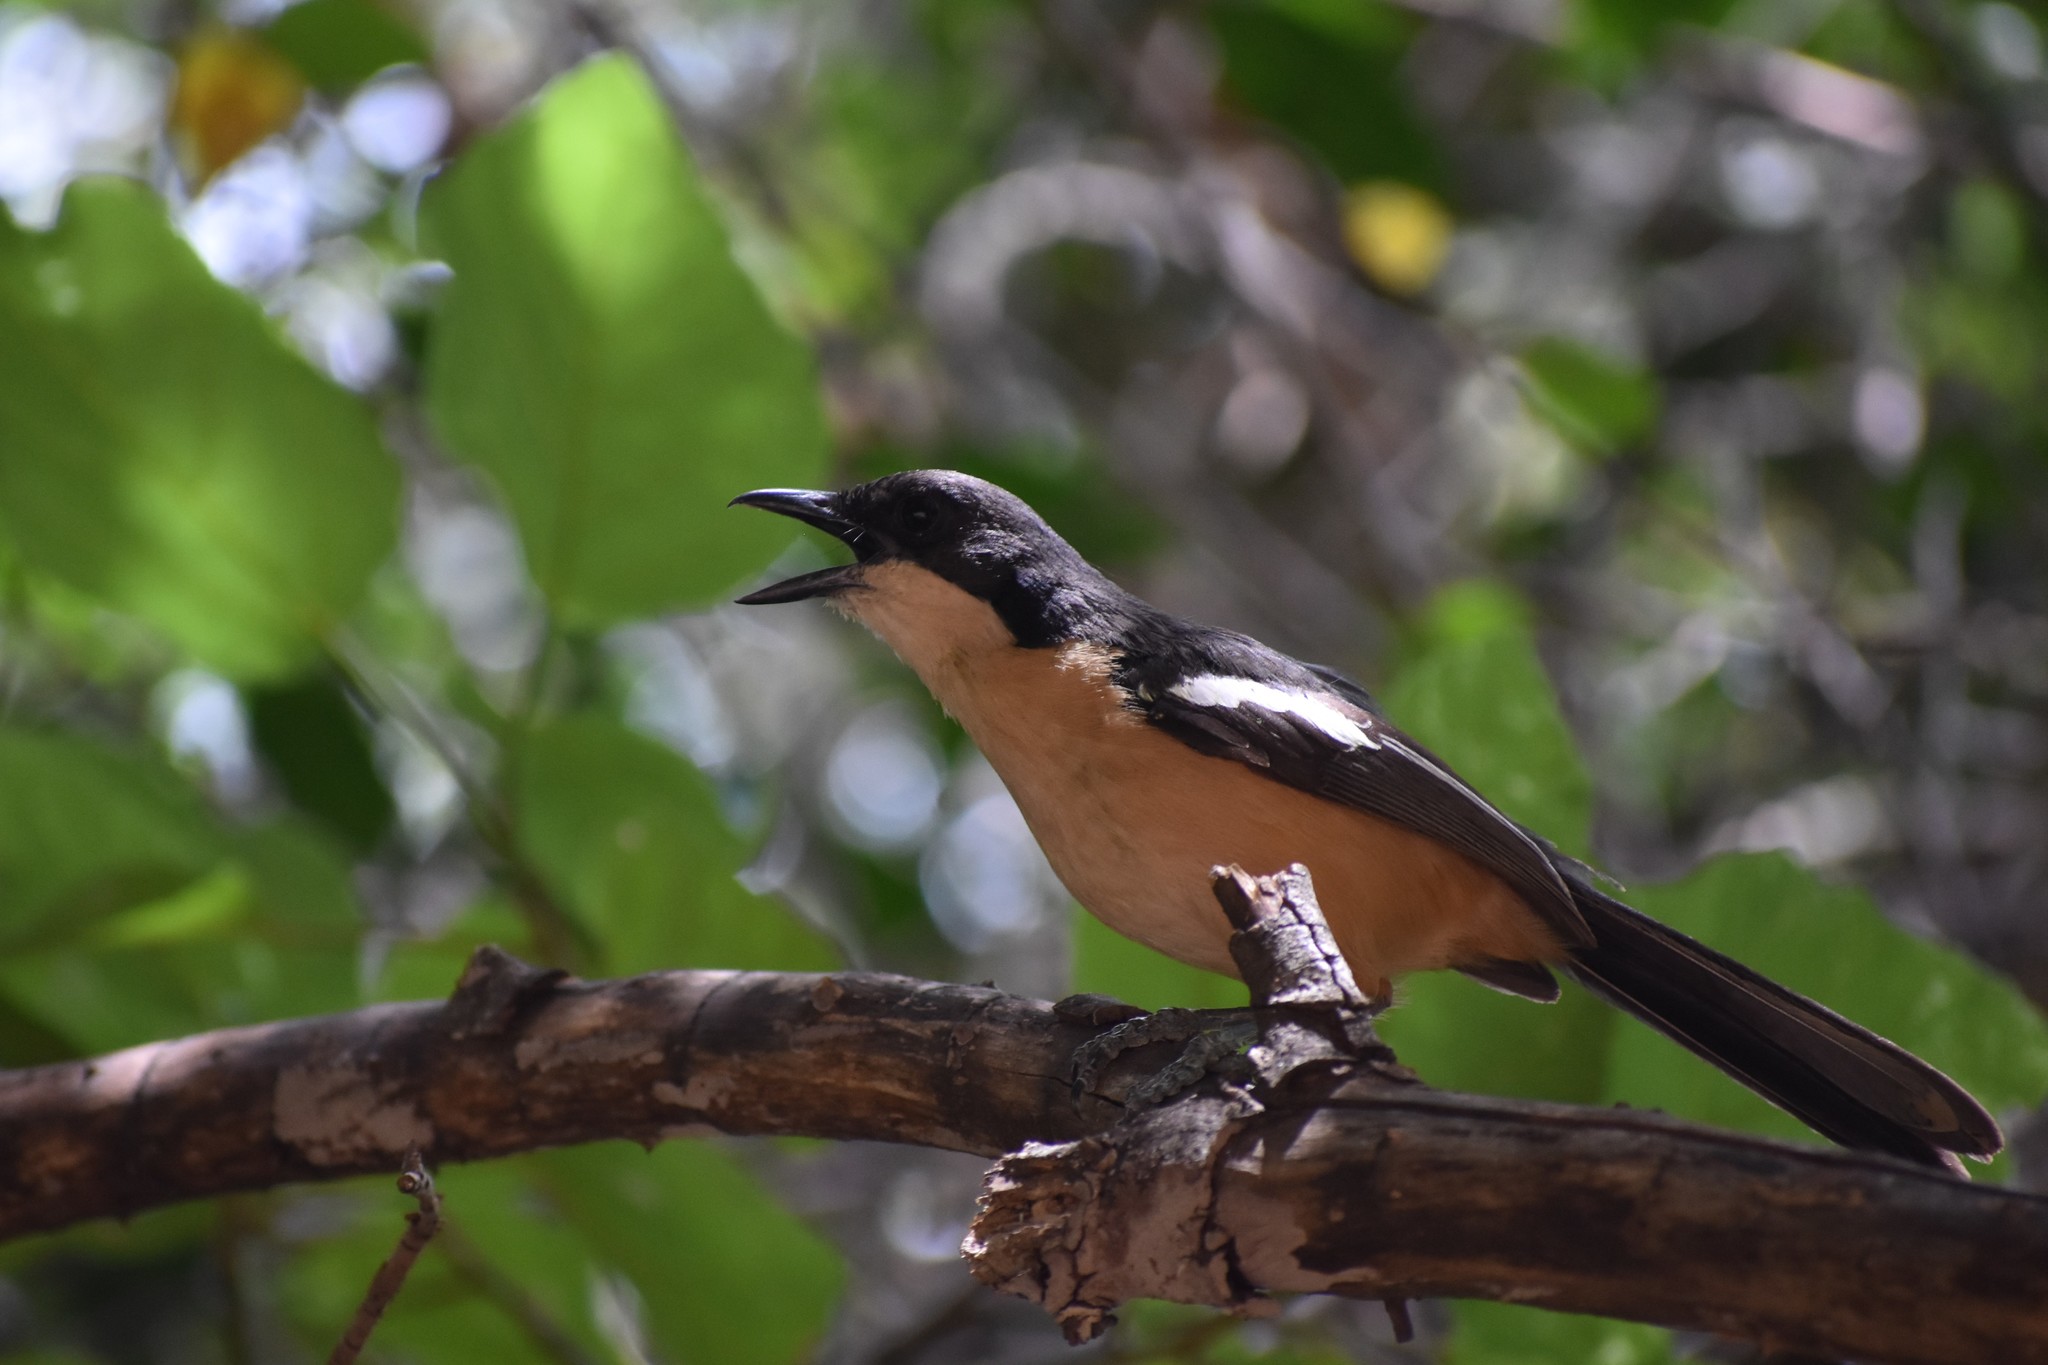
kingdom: Animalia
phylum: Chordata
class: Aves
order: Passeriformes
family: Malaconotidae
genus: Laniarius
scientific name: Laniarius ferrugineus
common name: Southern boubou
